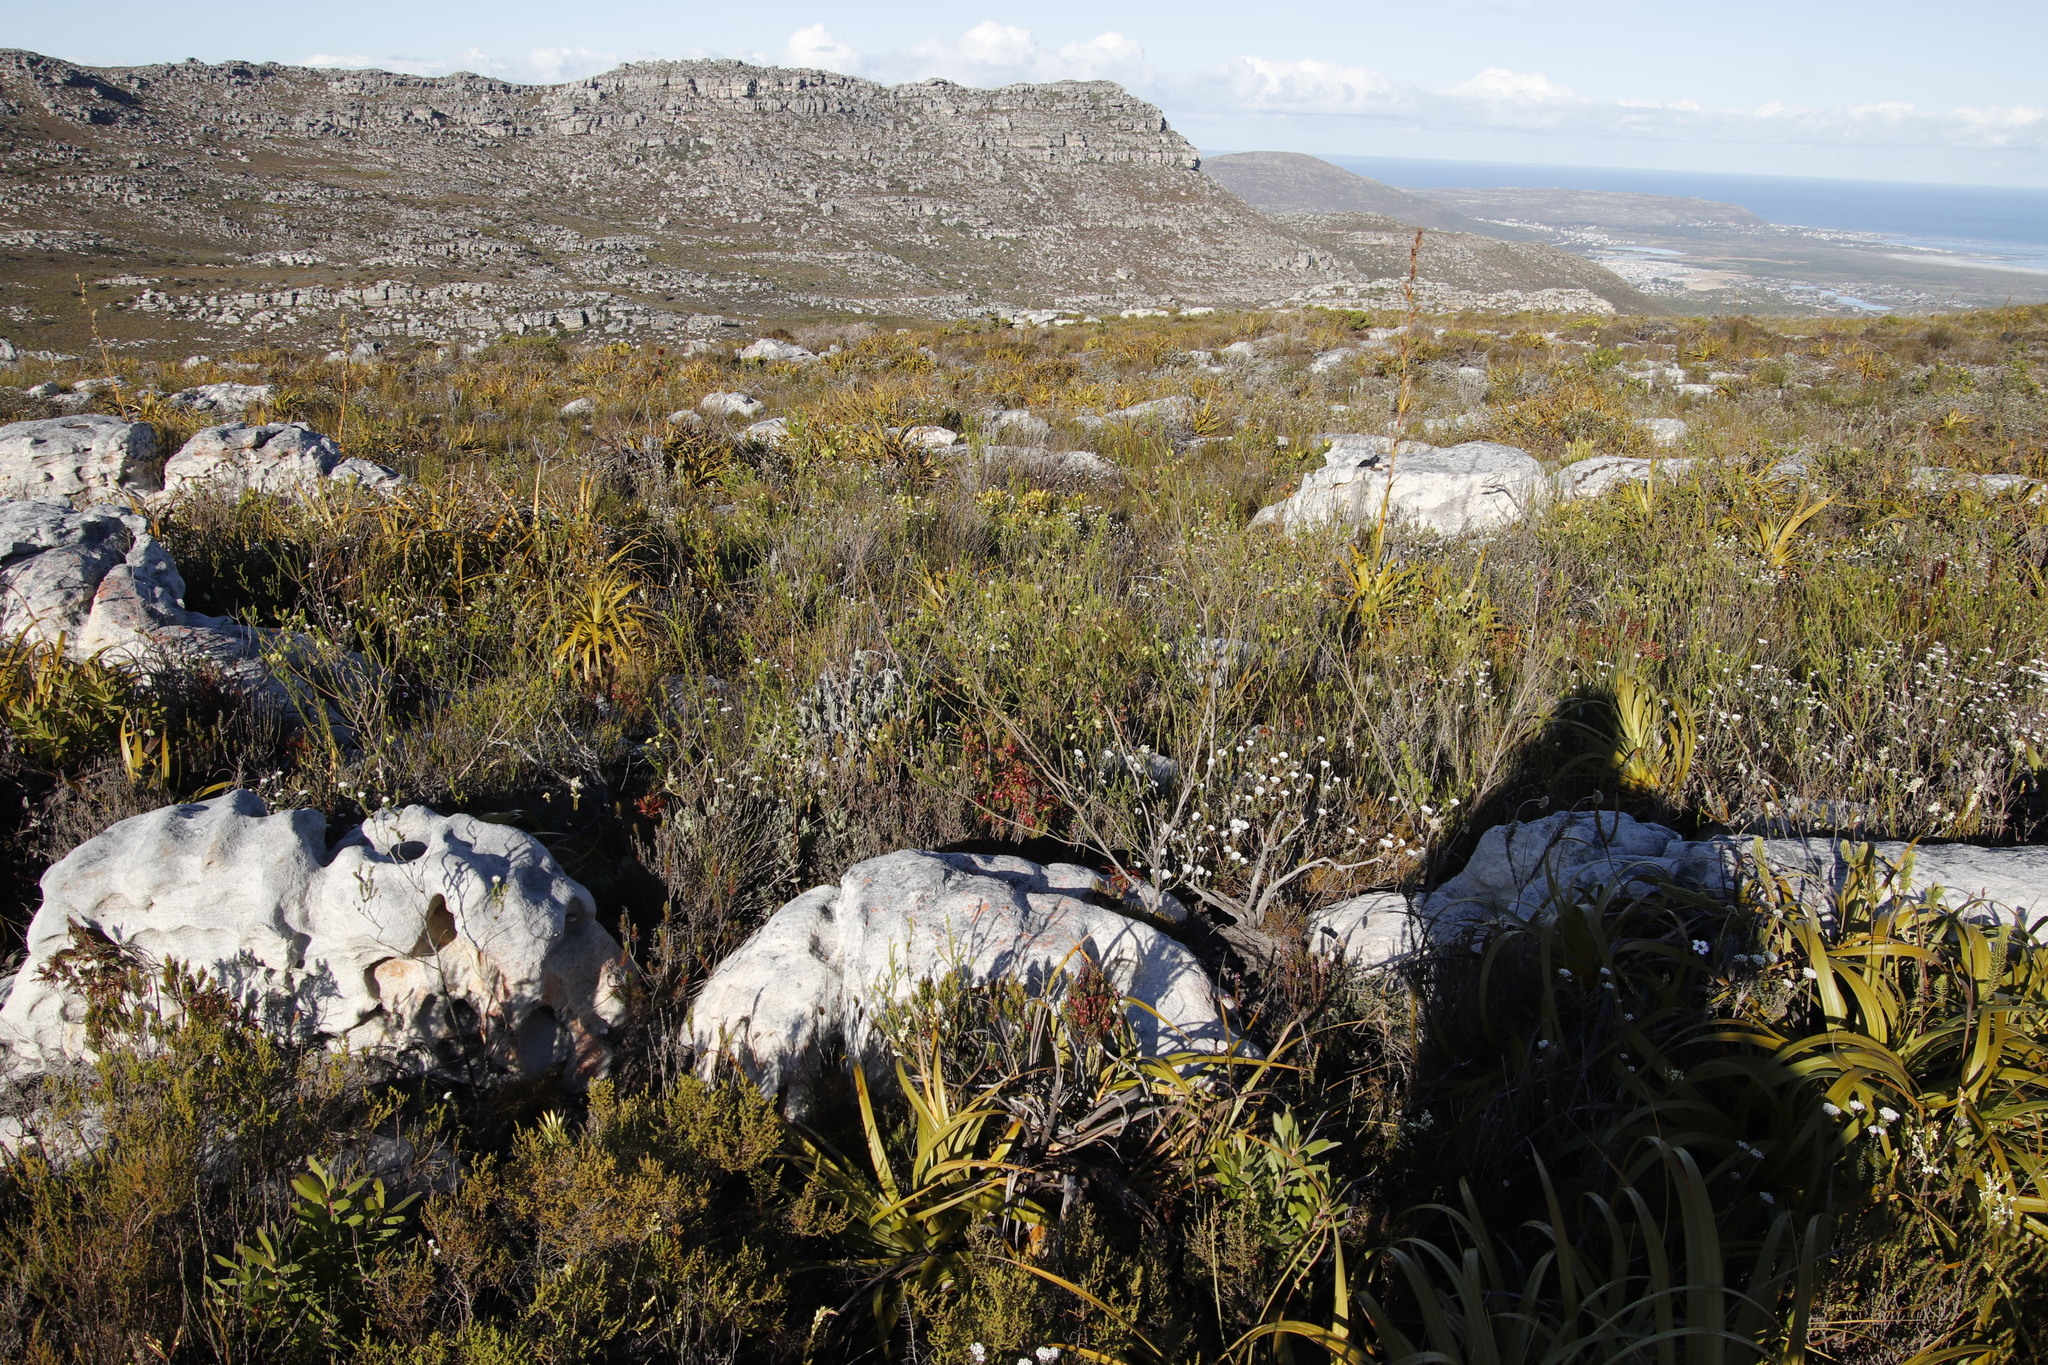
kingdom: Plantae
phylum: Tracheophyta
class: Magnoliopsida
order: Ericales
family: Ericaceae
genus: Erica
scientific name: Erica urna-viridis
